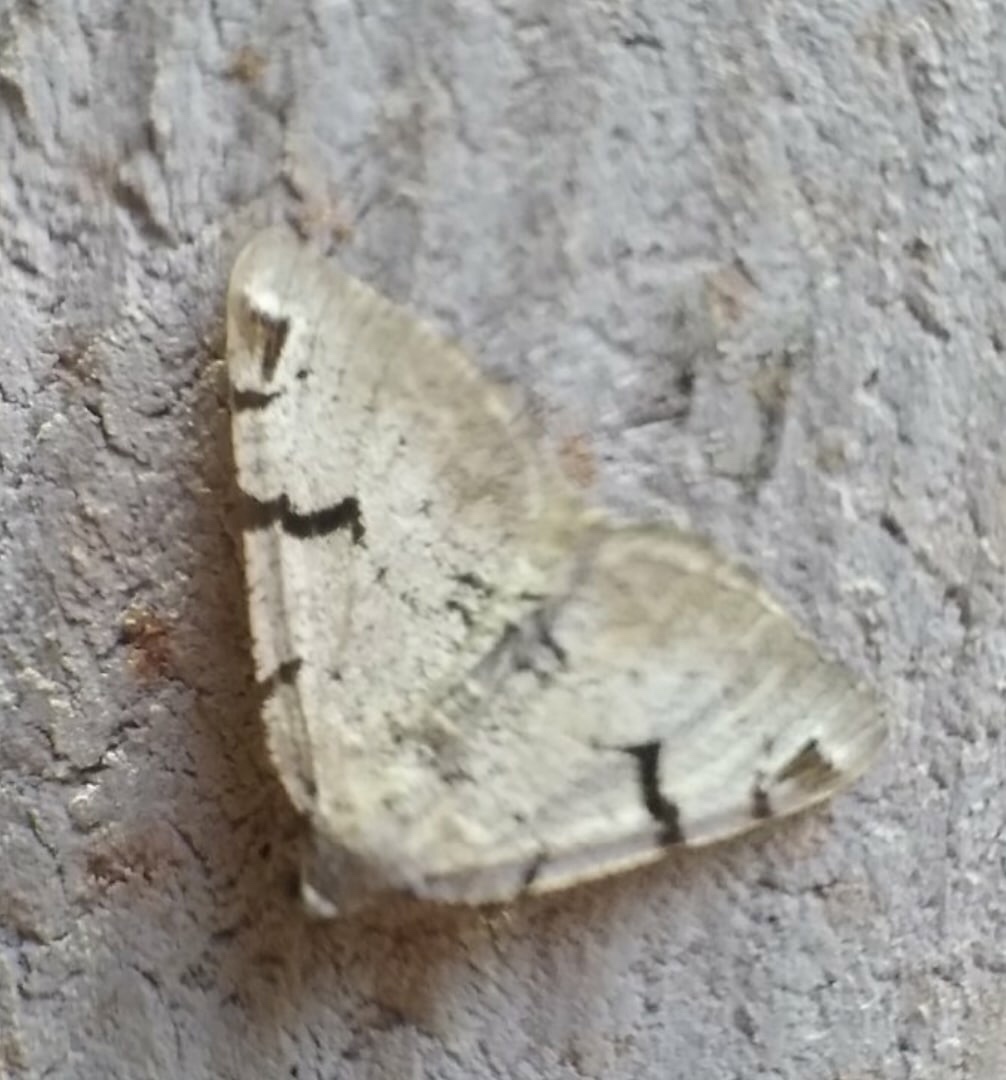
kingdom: Animalia
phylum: Arthropoda
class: Insecta
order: Lepidoptera
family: Geometridae
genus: Macaria
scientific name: Macaria wauaria
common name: V-moth
